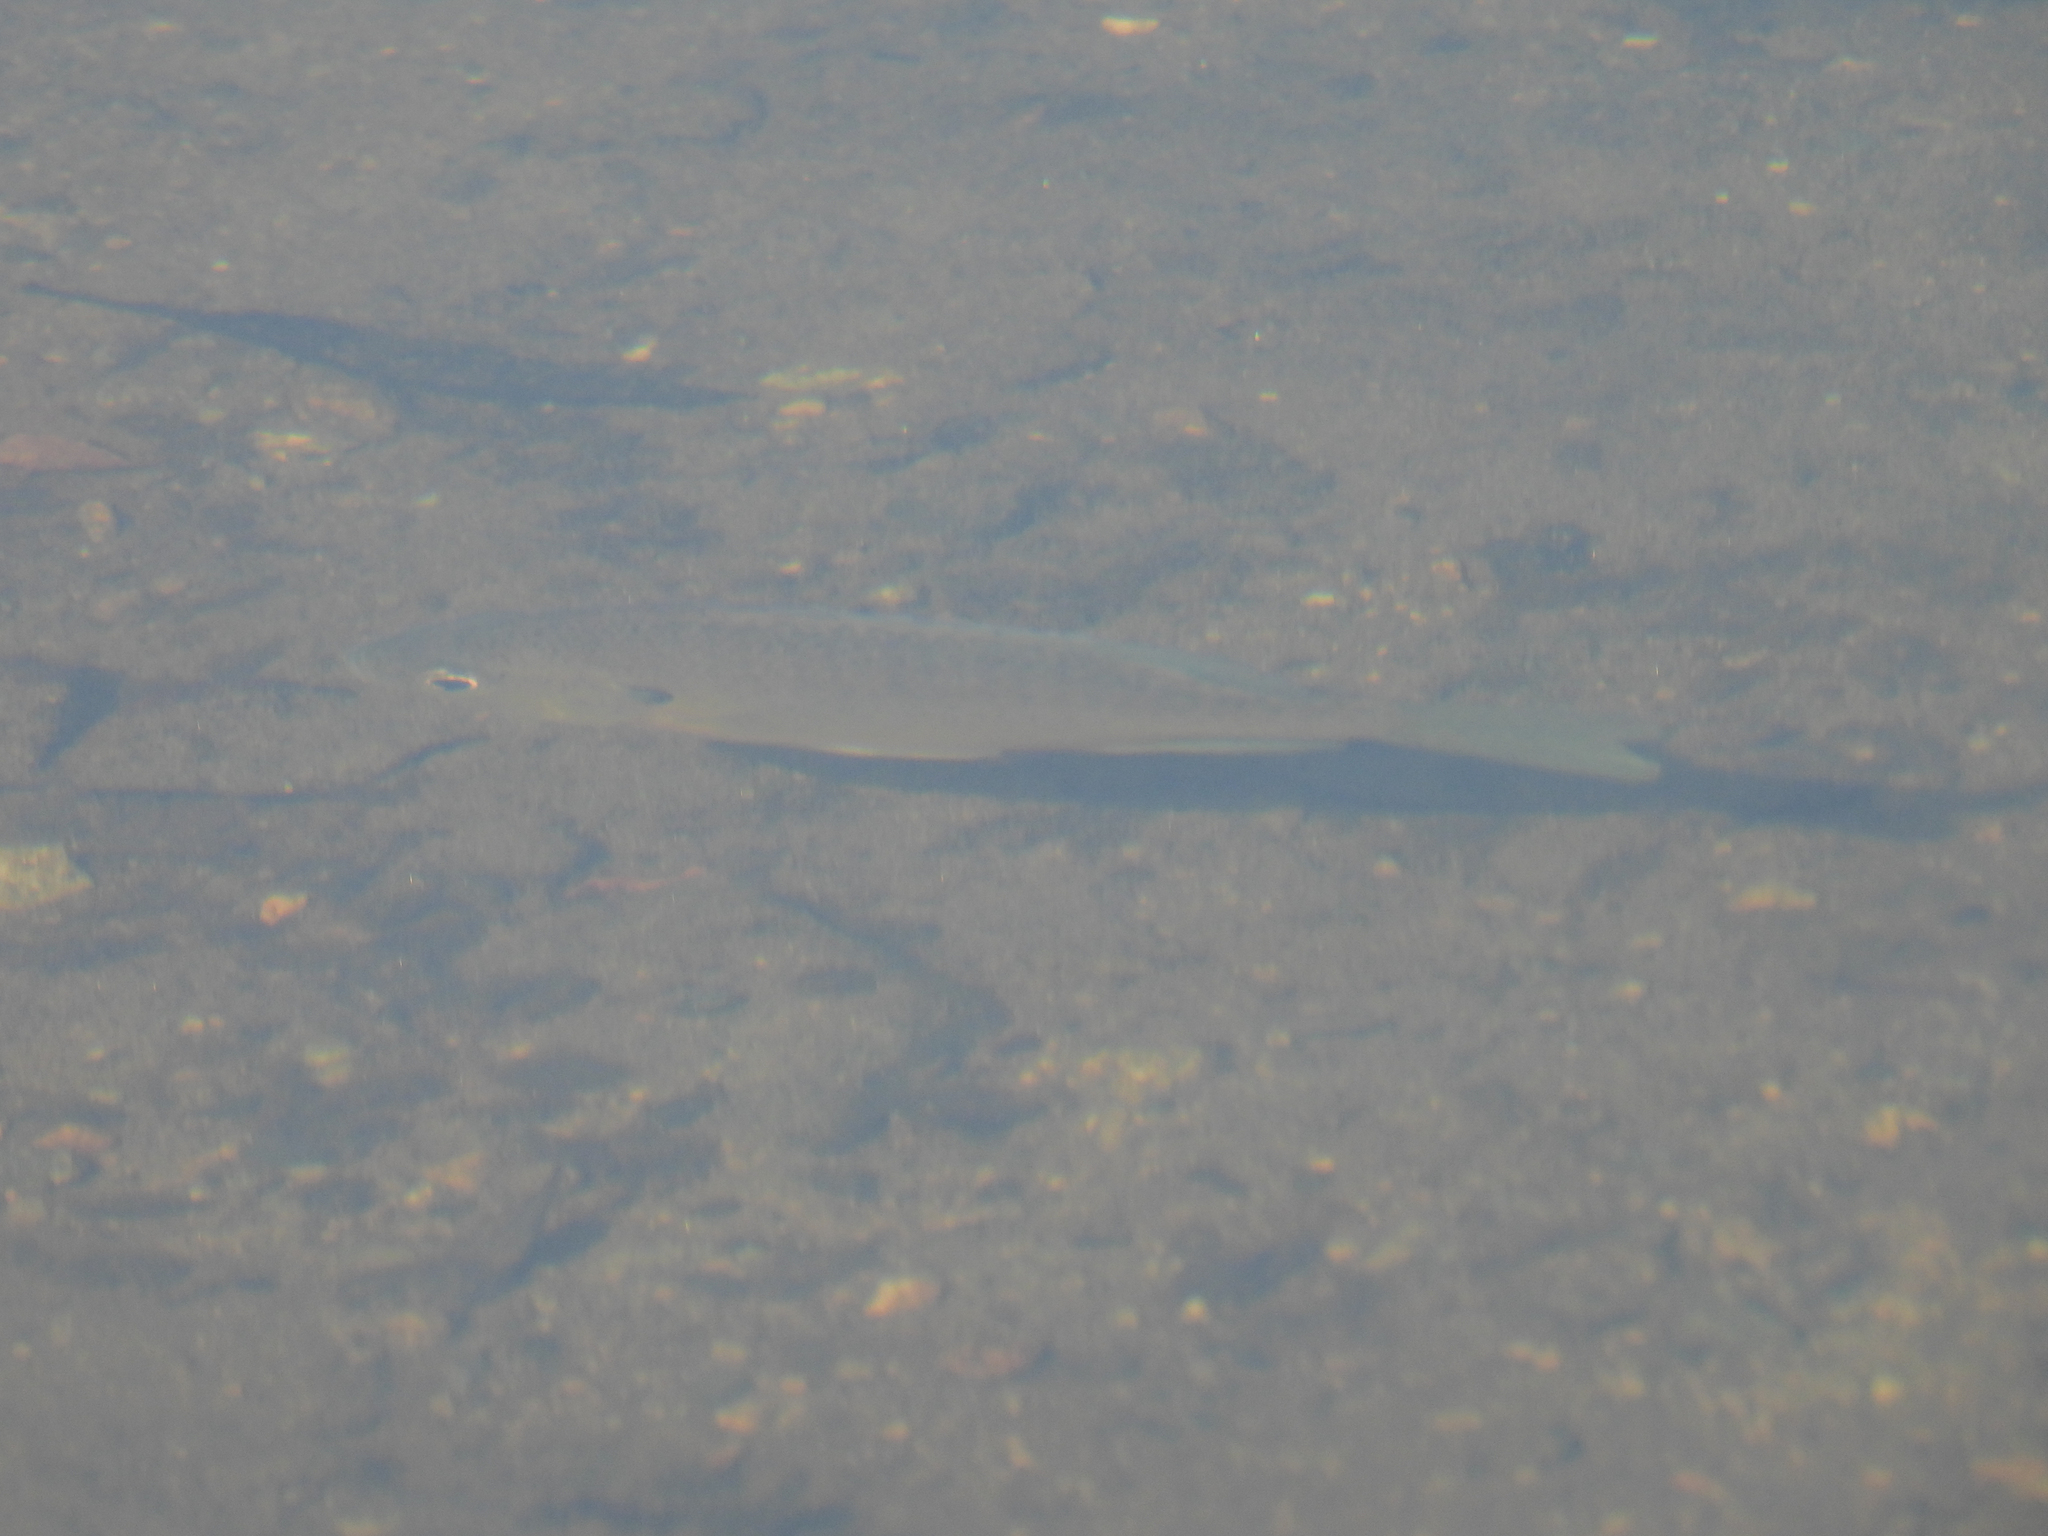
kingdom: Animalia
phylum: Chordata
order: Perciformes
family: Centrarchidae
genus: Lepomis
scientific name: Lepomis macrochirus
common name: Bluegill
